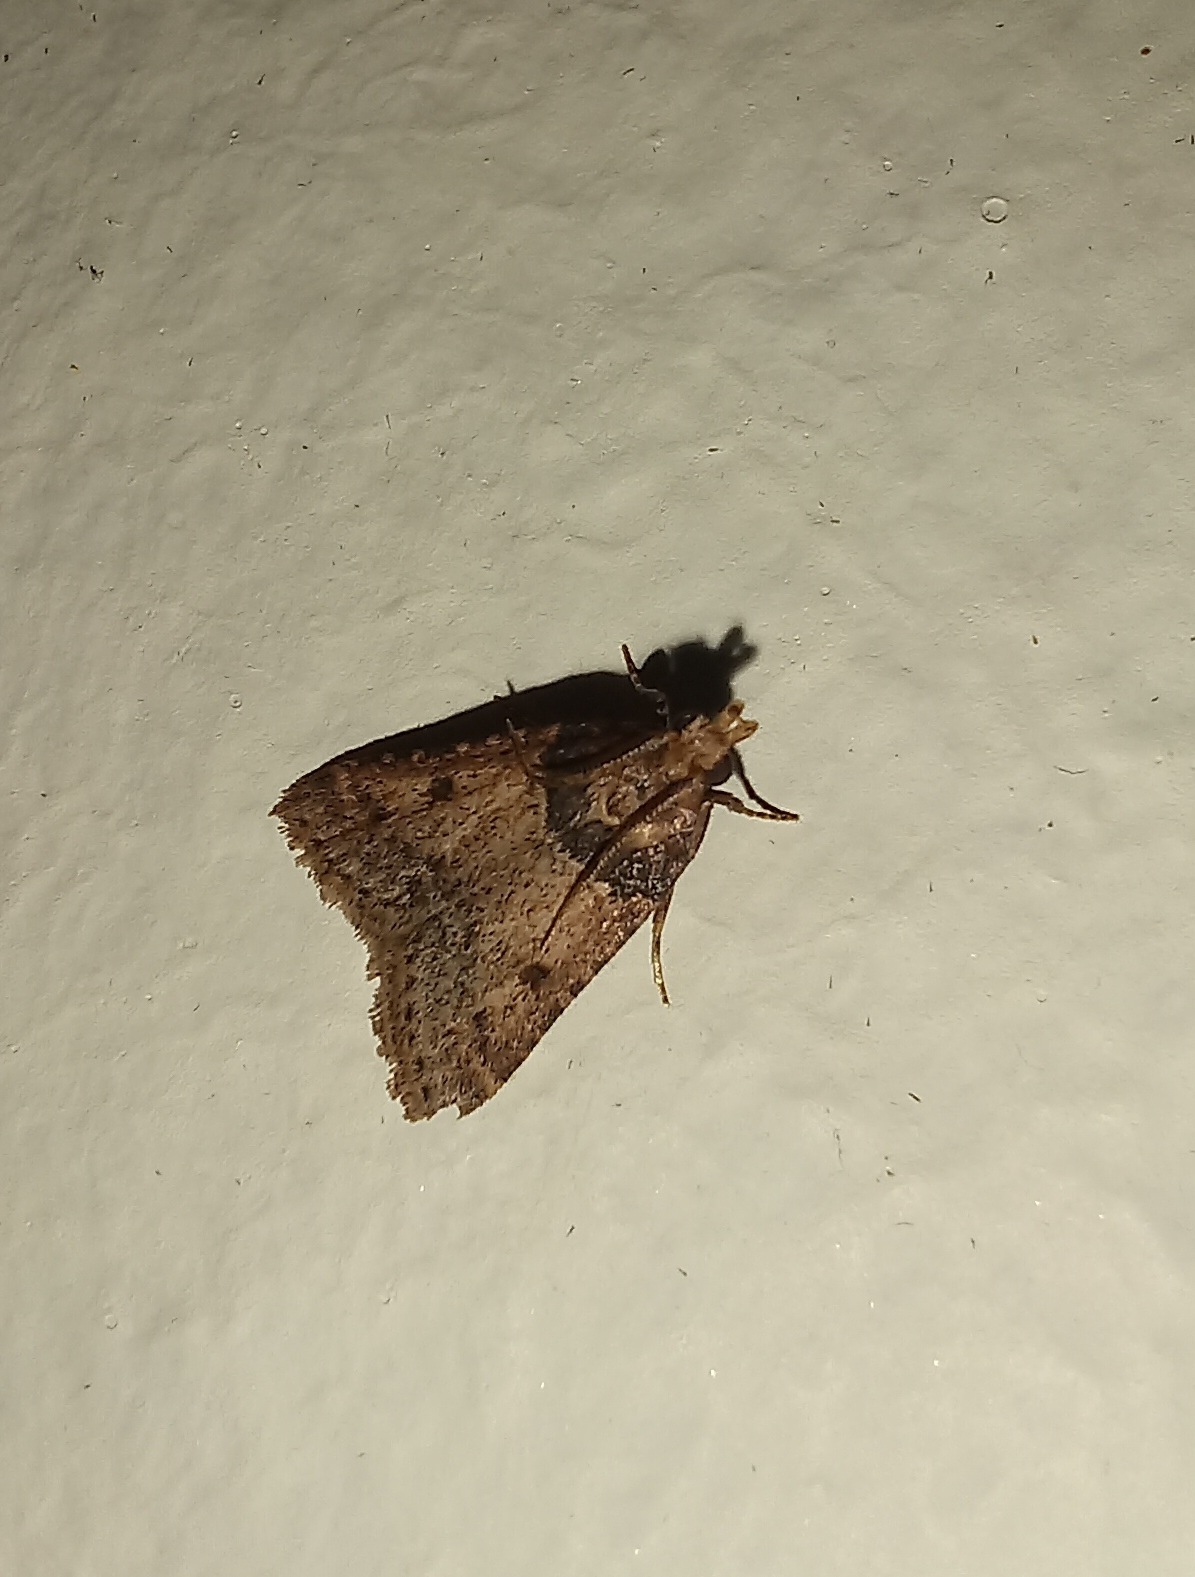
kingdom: Animalia
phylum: Arthropoda
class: Insecta
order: Lepidoptera
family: Pyralidae
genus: Philotis
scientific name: Philotis basalis
